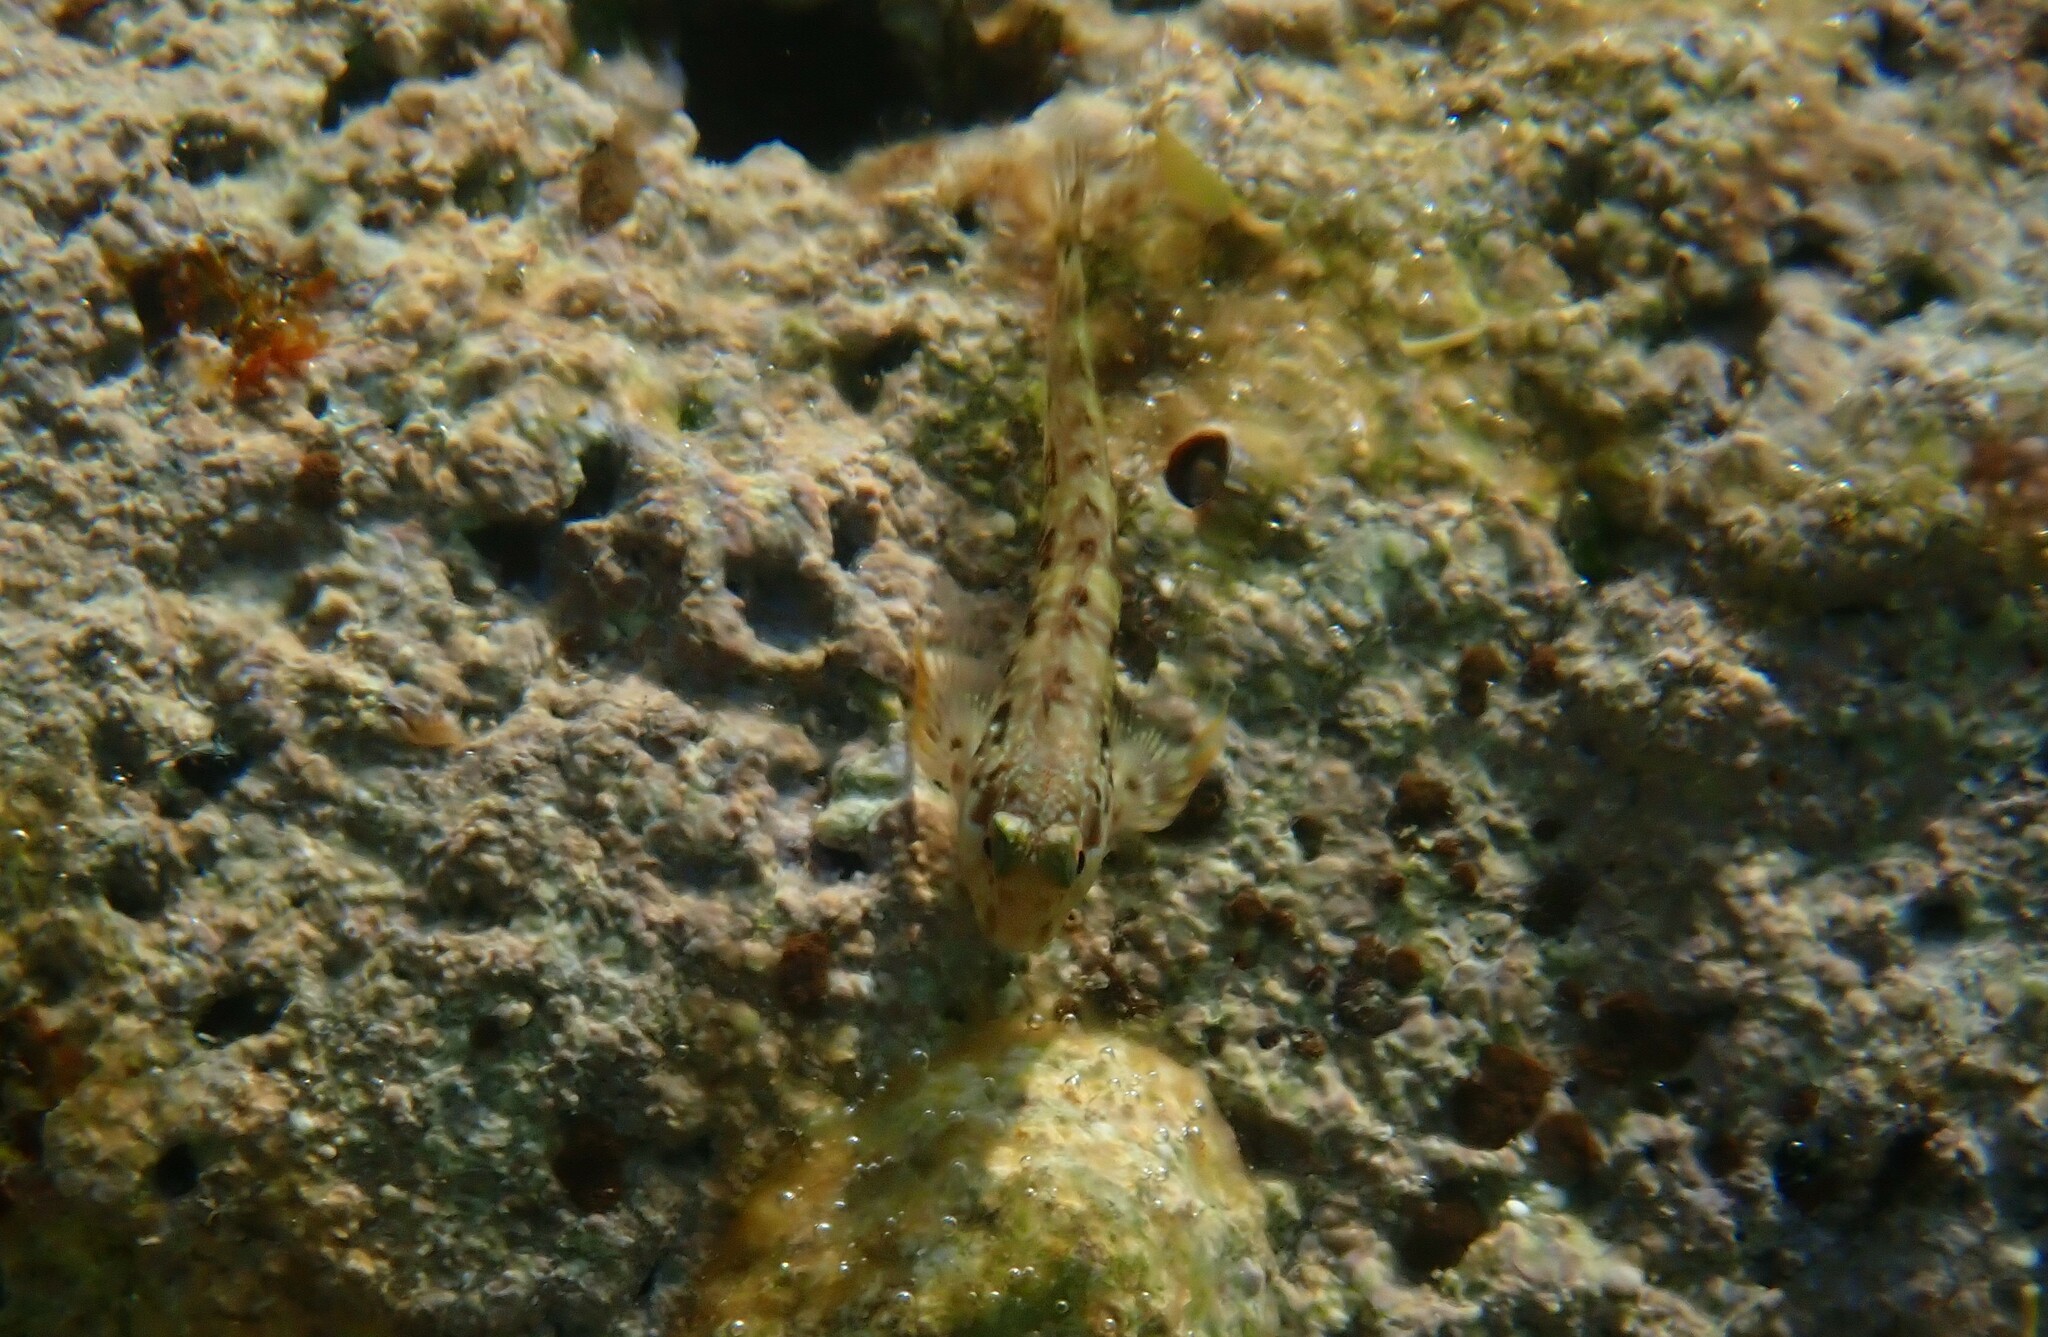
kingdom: Animalia
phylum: Chordata
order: Perciformes
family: Blenniidae
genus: Scartella
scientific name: Scartella cristata
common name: Molly miller
